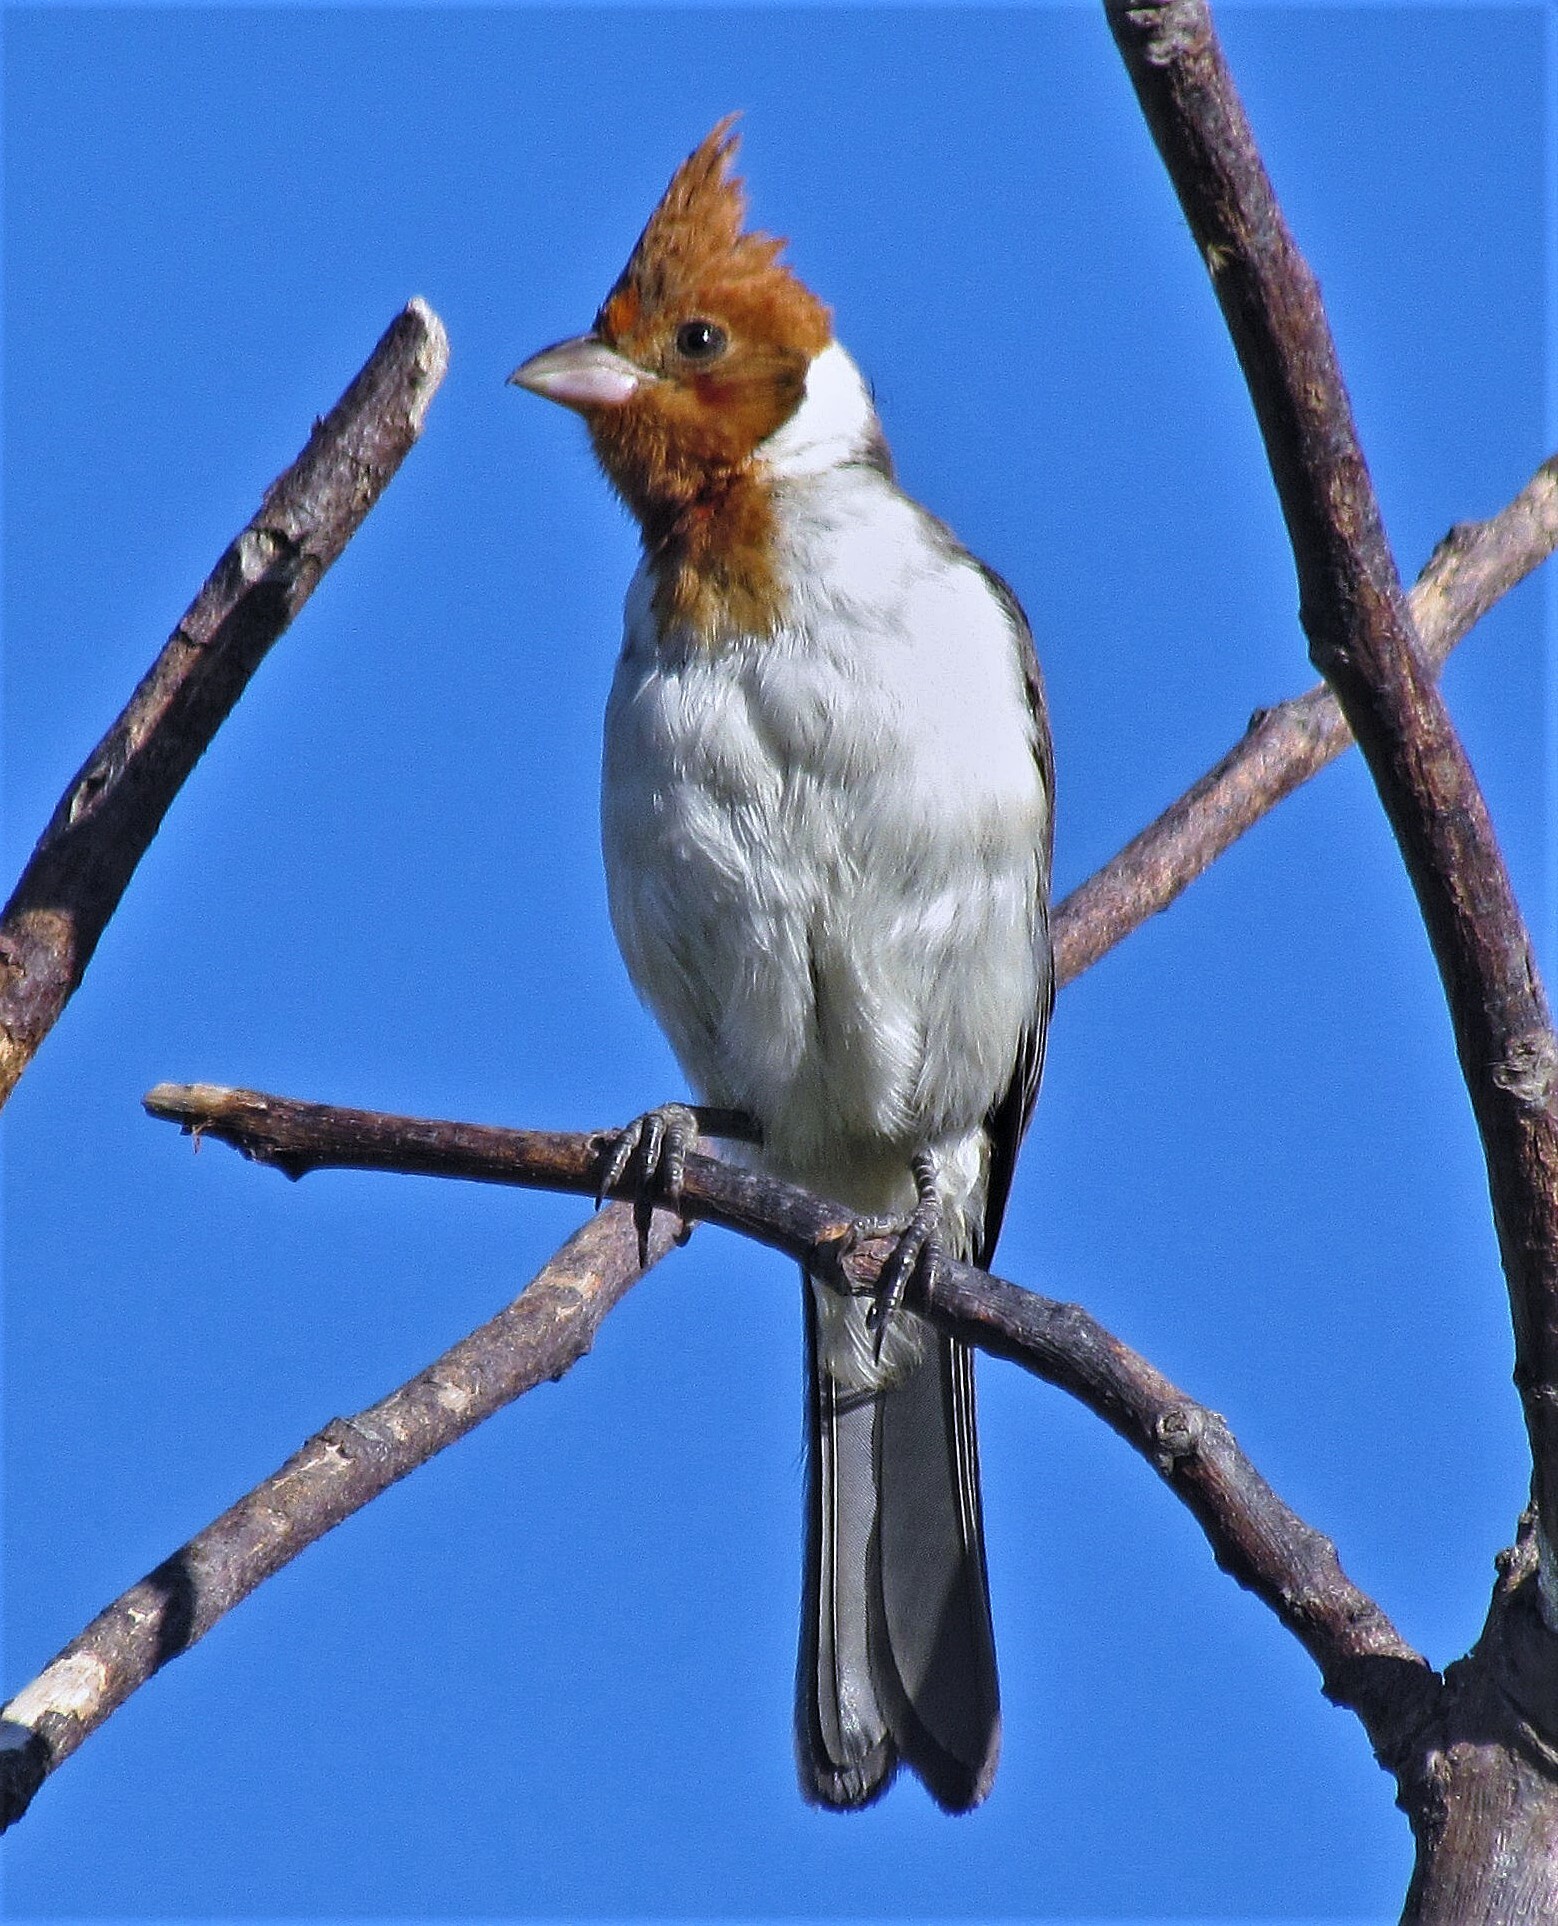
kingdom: Animalia
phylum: Chordata
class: Aves
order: Passeriformes
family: Thraupidae
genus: Paroaria
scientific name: Paroaria coronata
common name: Red-crested cardinal
